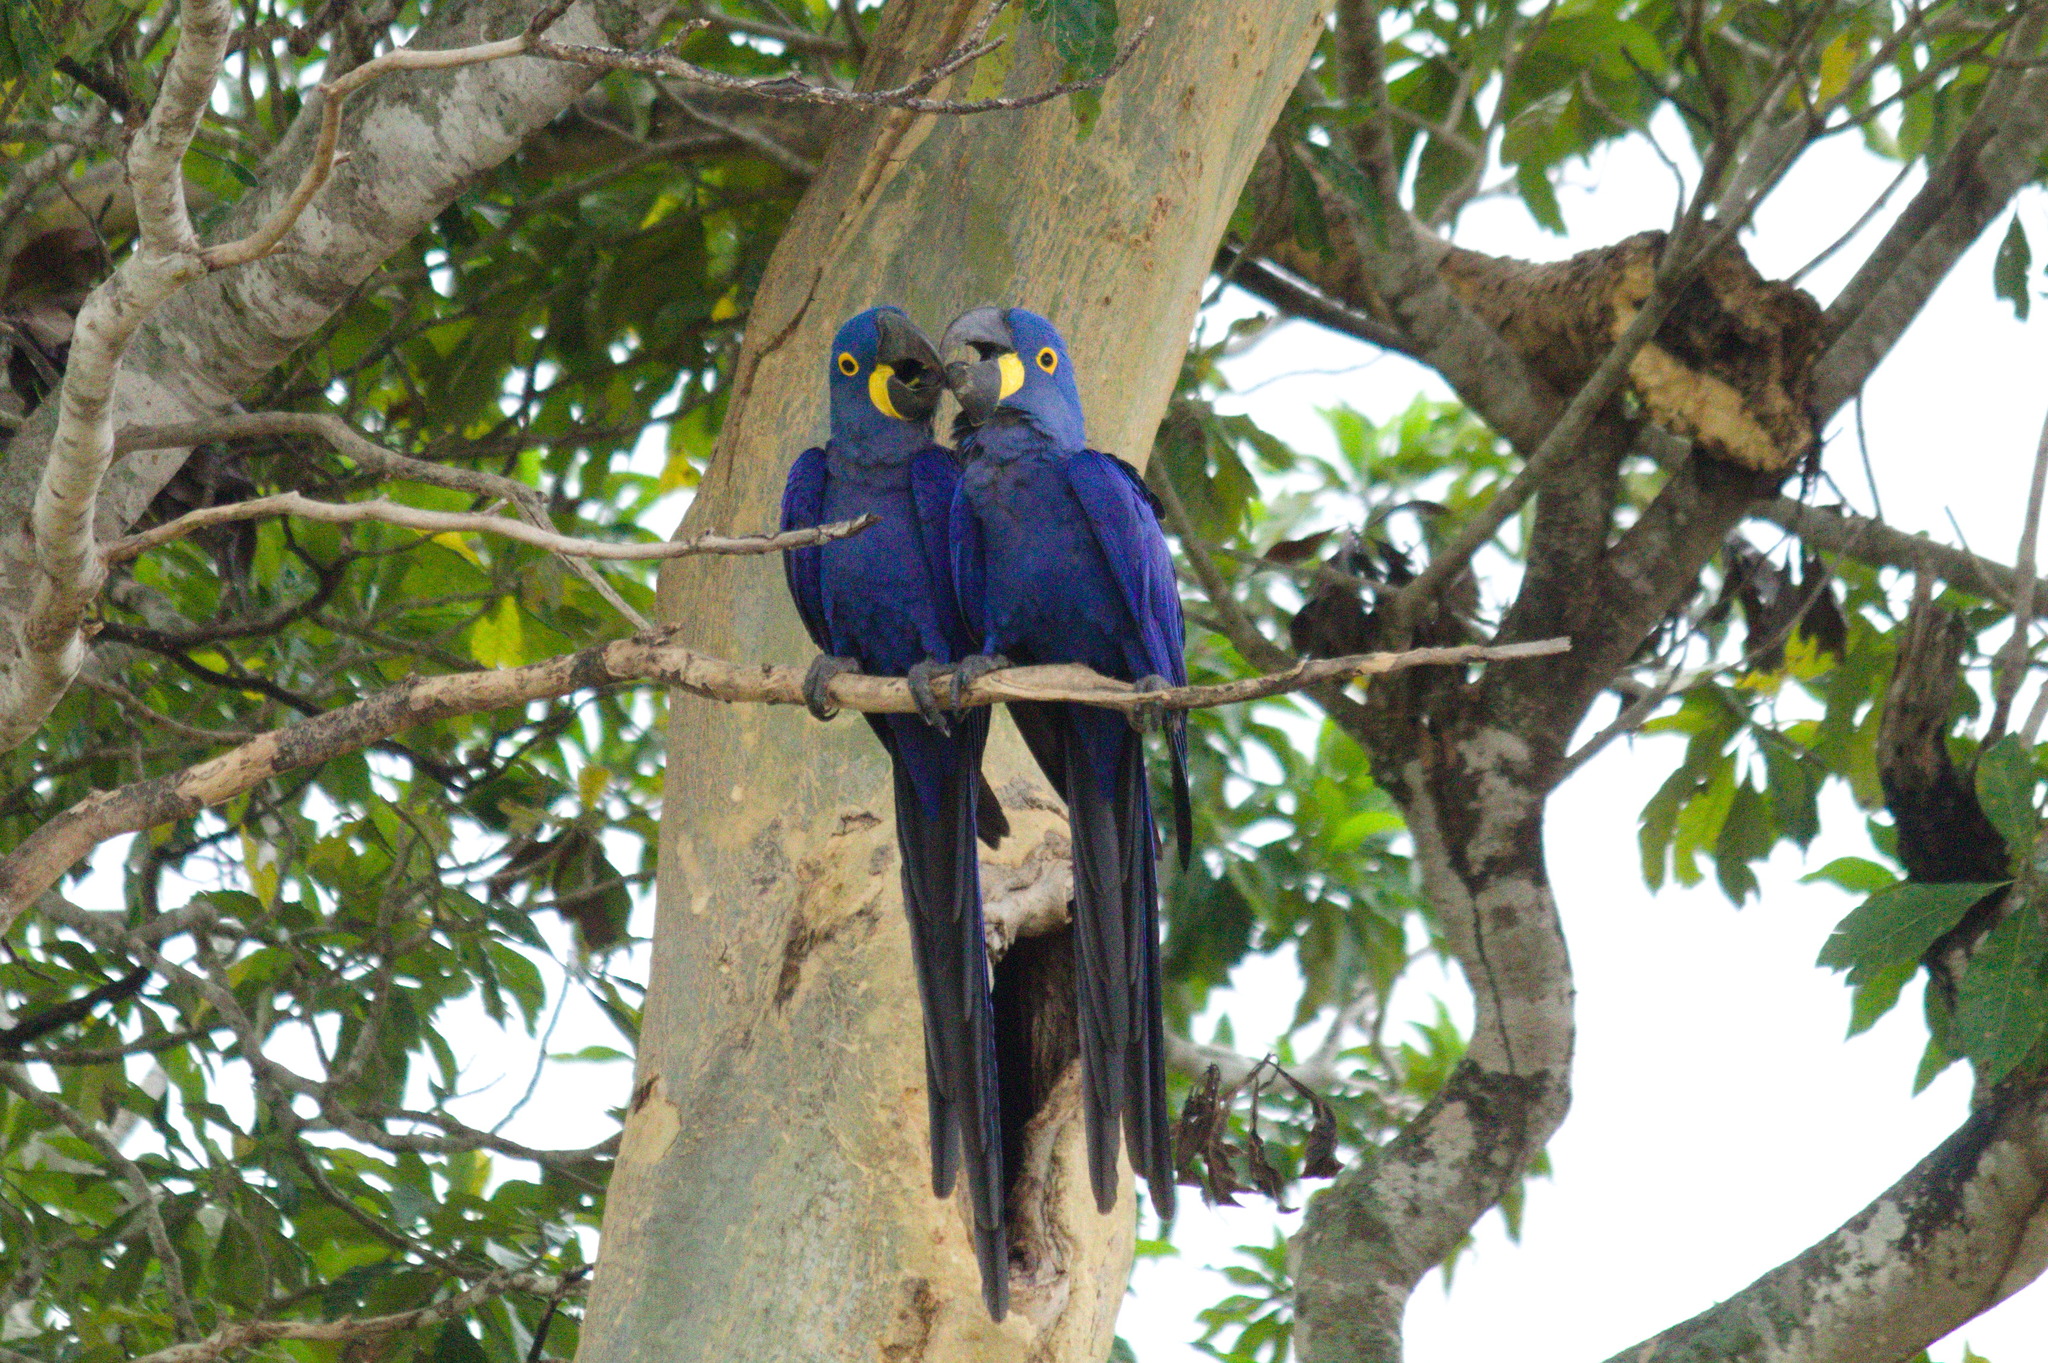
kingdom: Animalia
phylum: Chordata
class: Aves
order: Psittaciformes
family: Psittacidae
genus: Anodorhynchus
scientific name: Anodorhynchus hyacinthinus
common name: Hyacinth macaw
